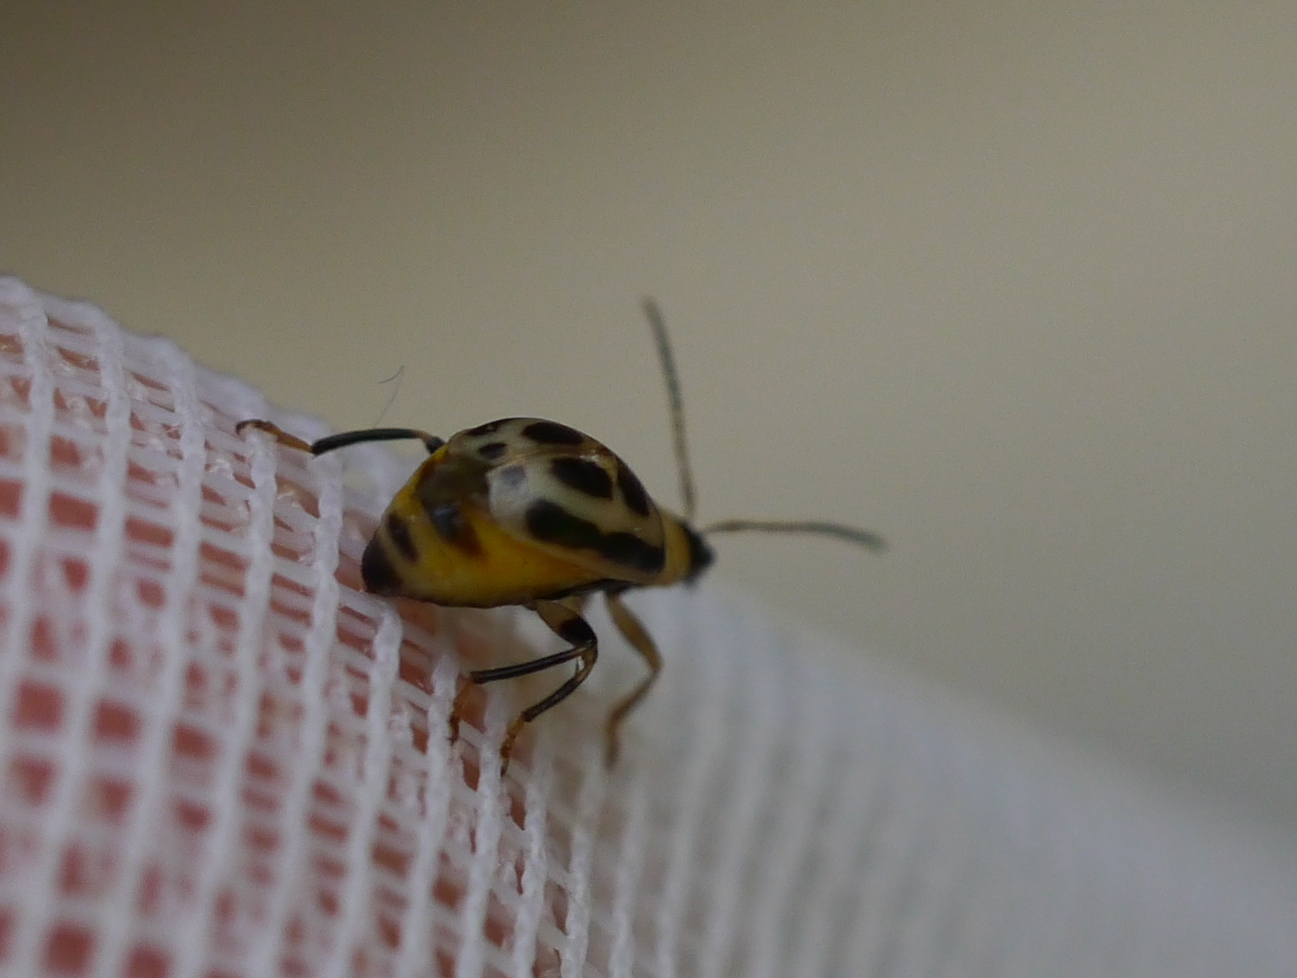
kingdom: Animalia
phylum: Arthropoda
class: Insecta
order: Coleoptera
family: Chrysomelidae
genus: Cerotoma
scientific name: Cerotoma trifurcata
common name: Bean leaf beetle
